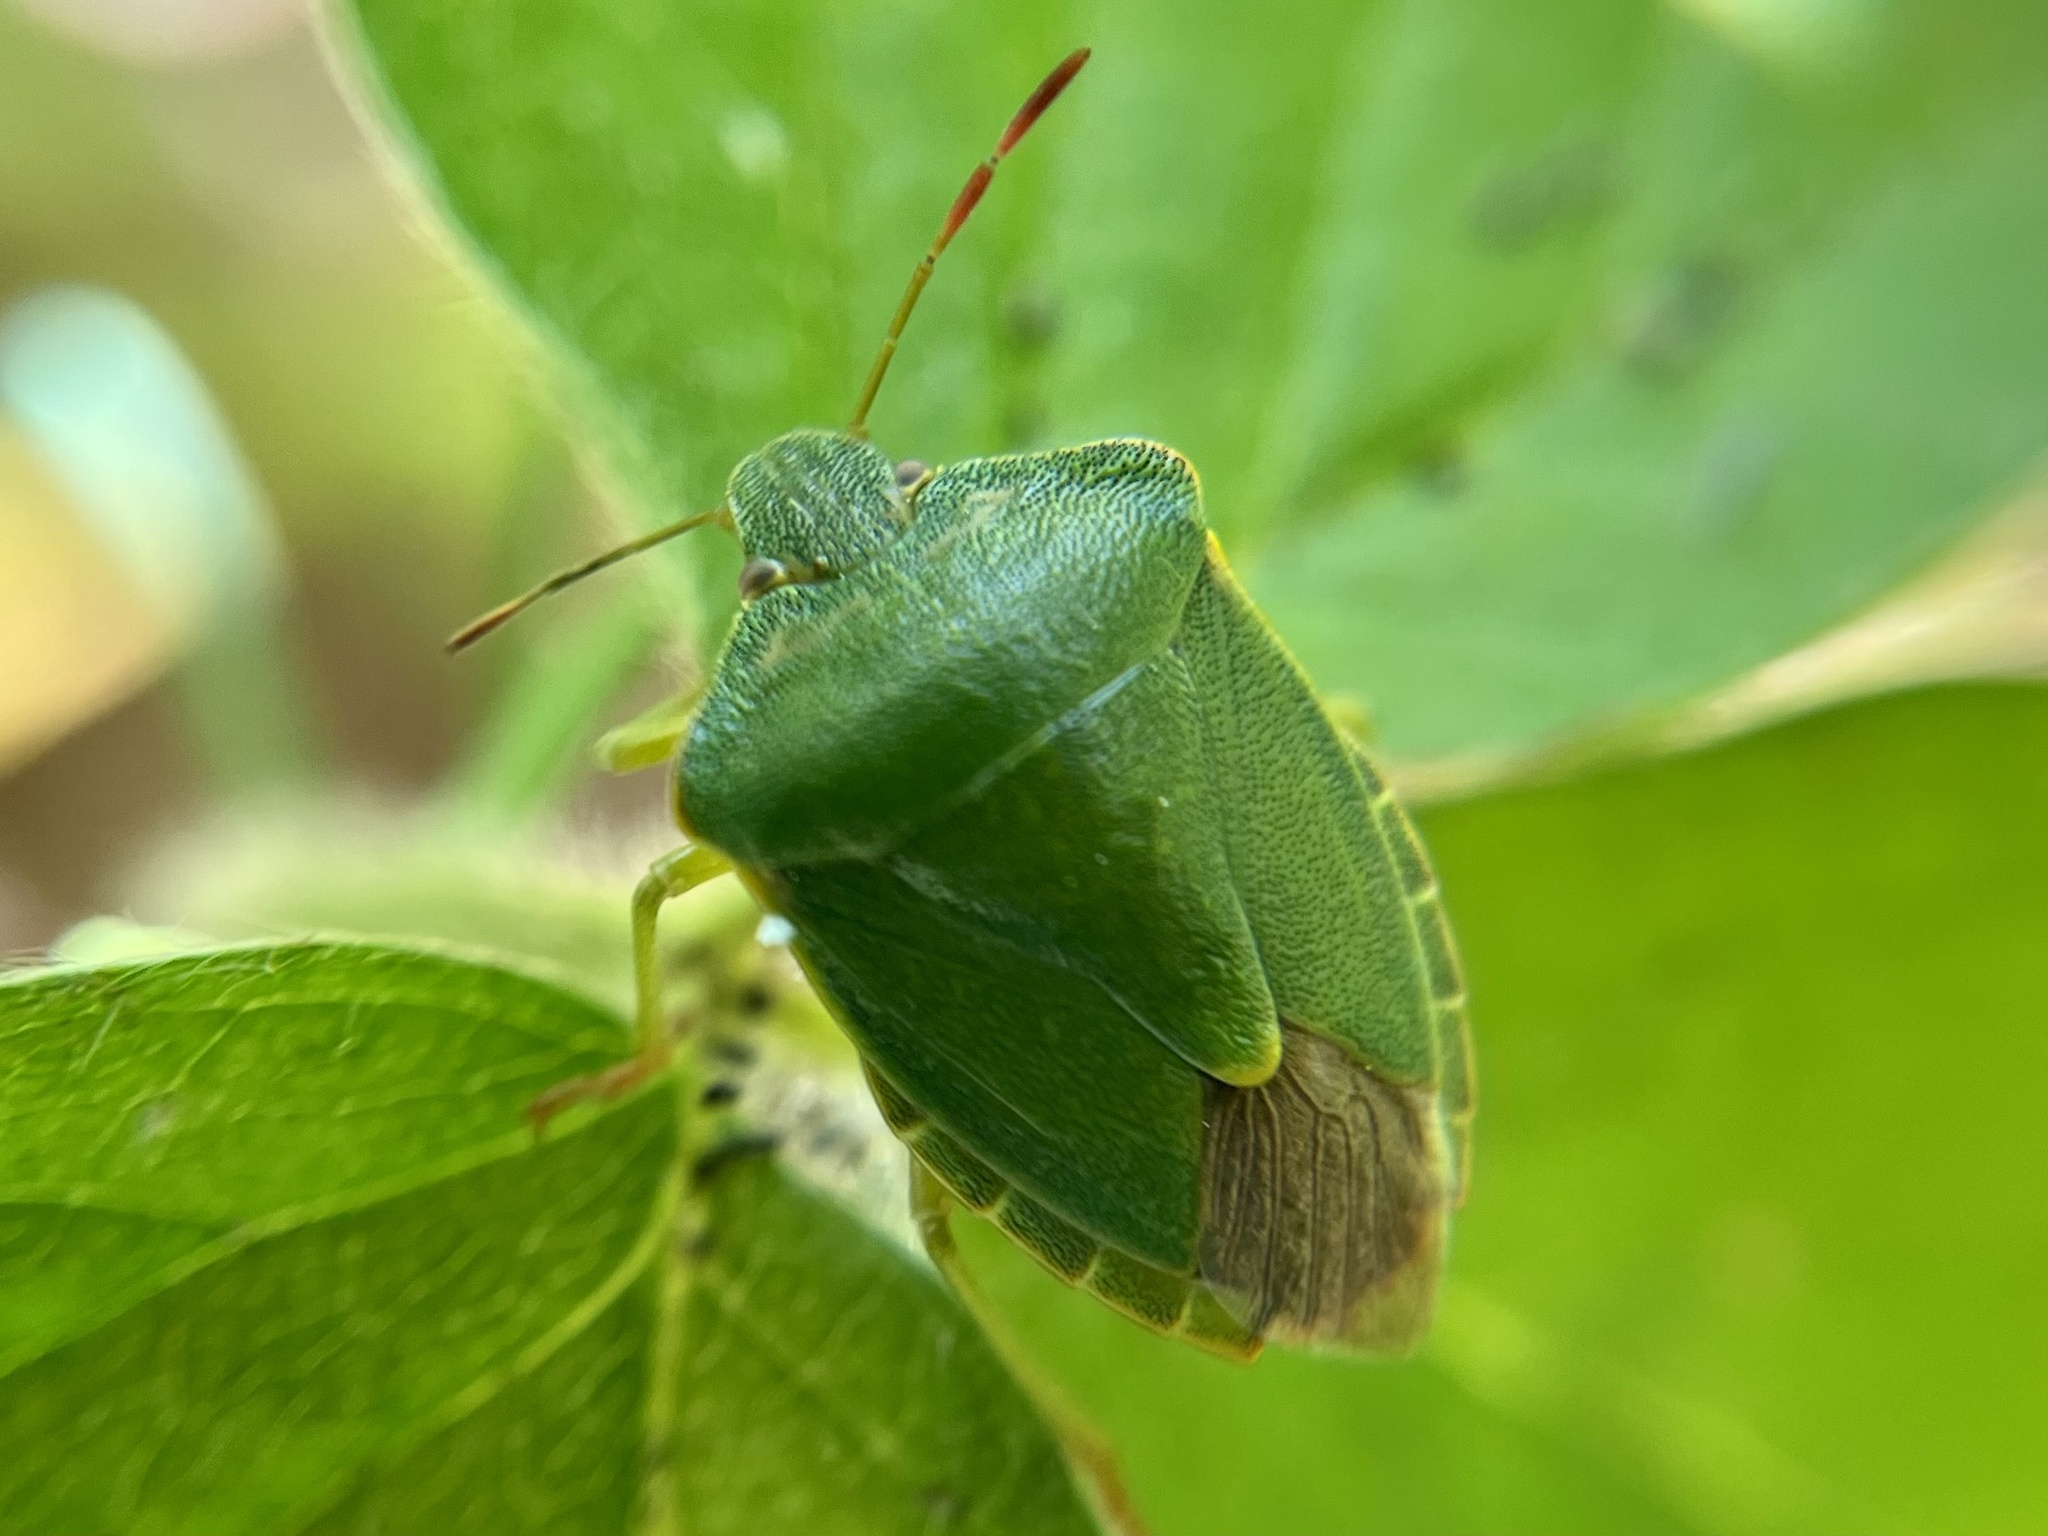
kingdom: Animalia
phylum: Arthropoda
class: Insecta
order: Hemiptera
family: Pentatomidae
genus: Palomena
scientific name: Palomena prasina
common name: Green shieldbug
